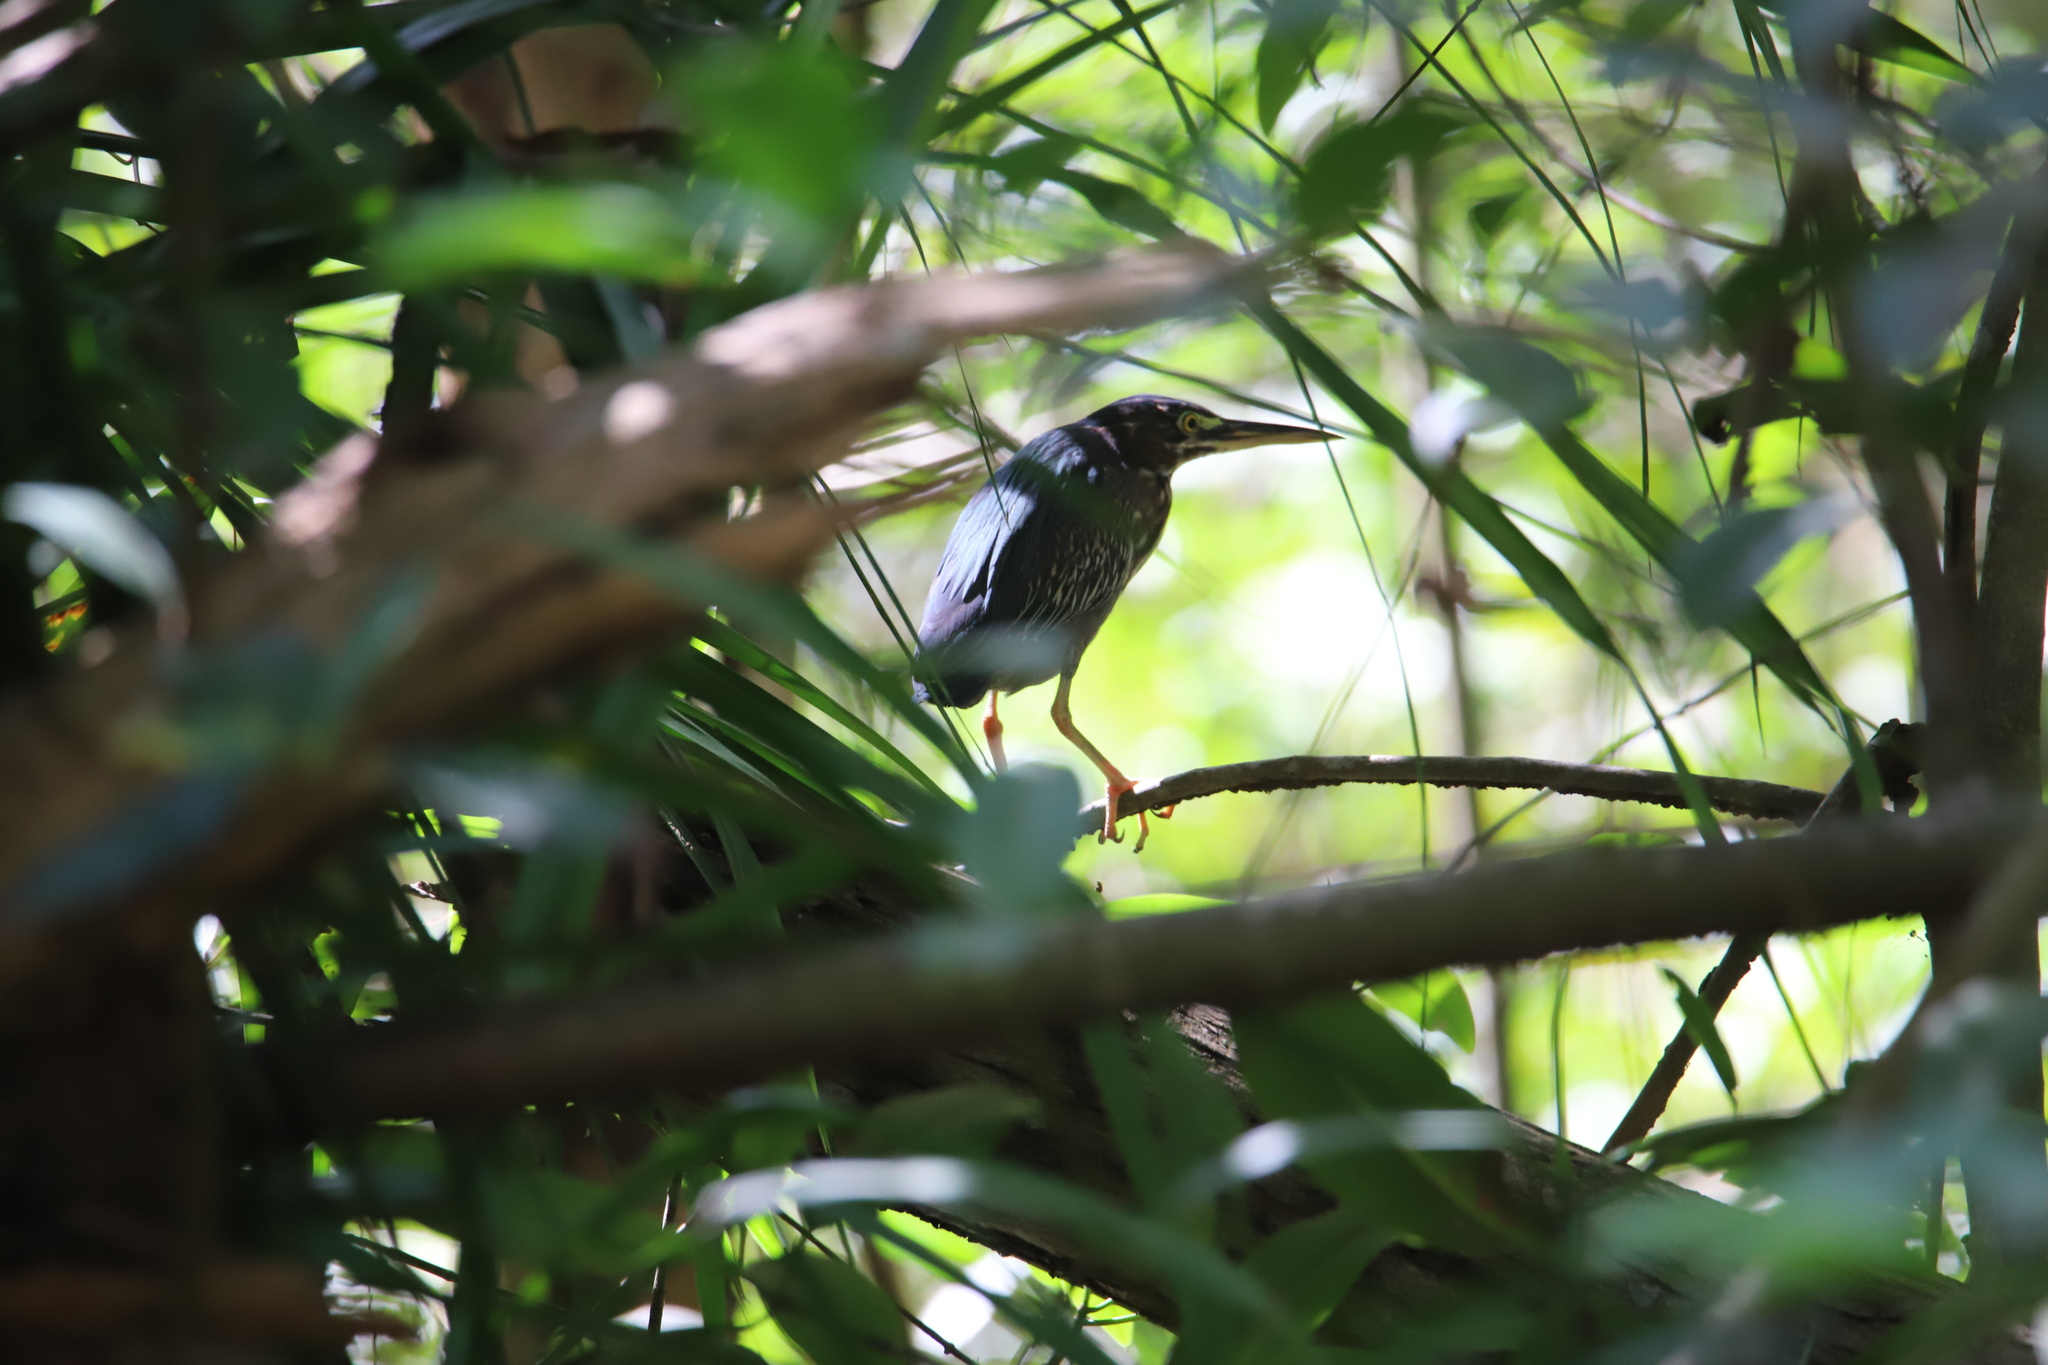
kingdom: Animalia
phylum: Chordata
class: Aves
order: Pelecaniformes
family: Ardeidae
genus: Butorides
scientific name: Butorides virescens
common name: Green heron
